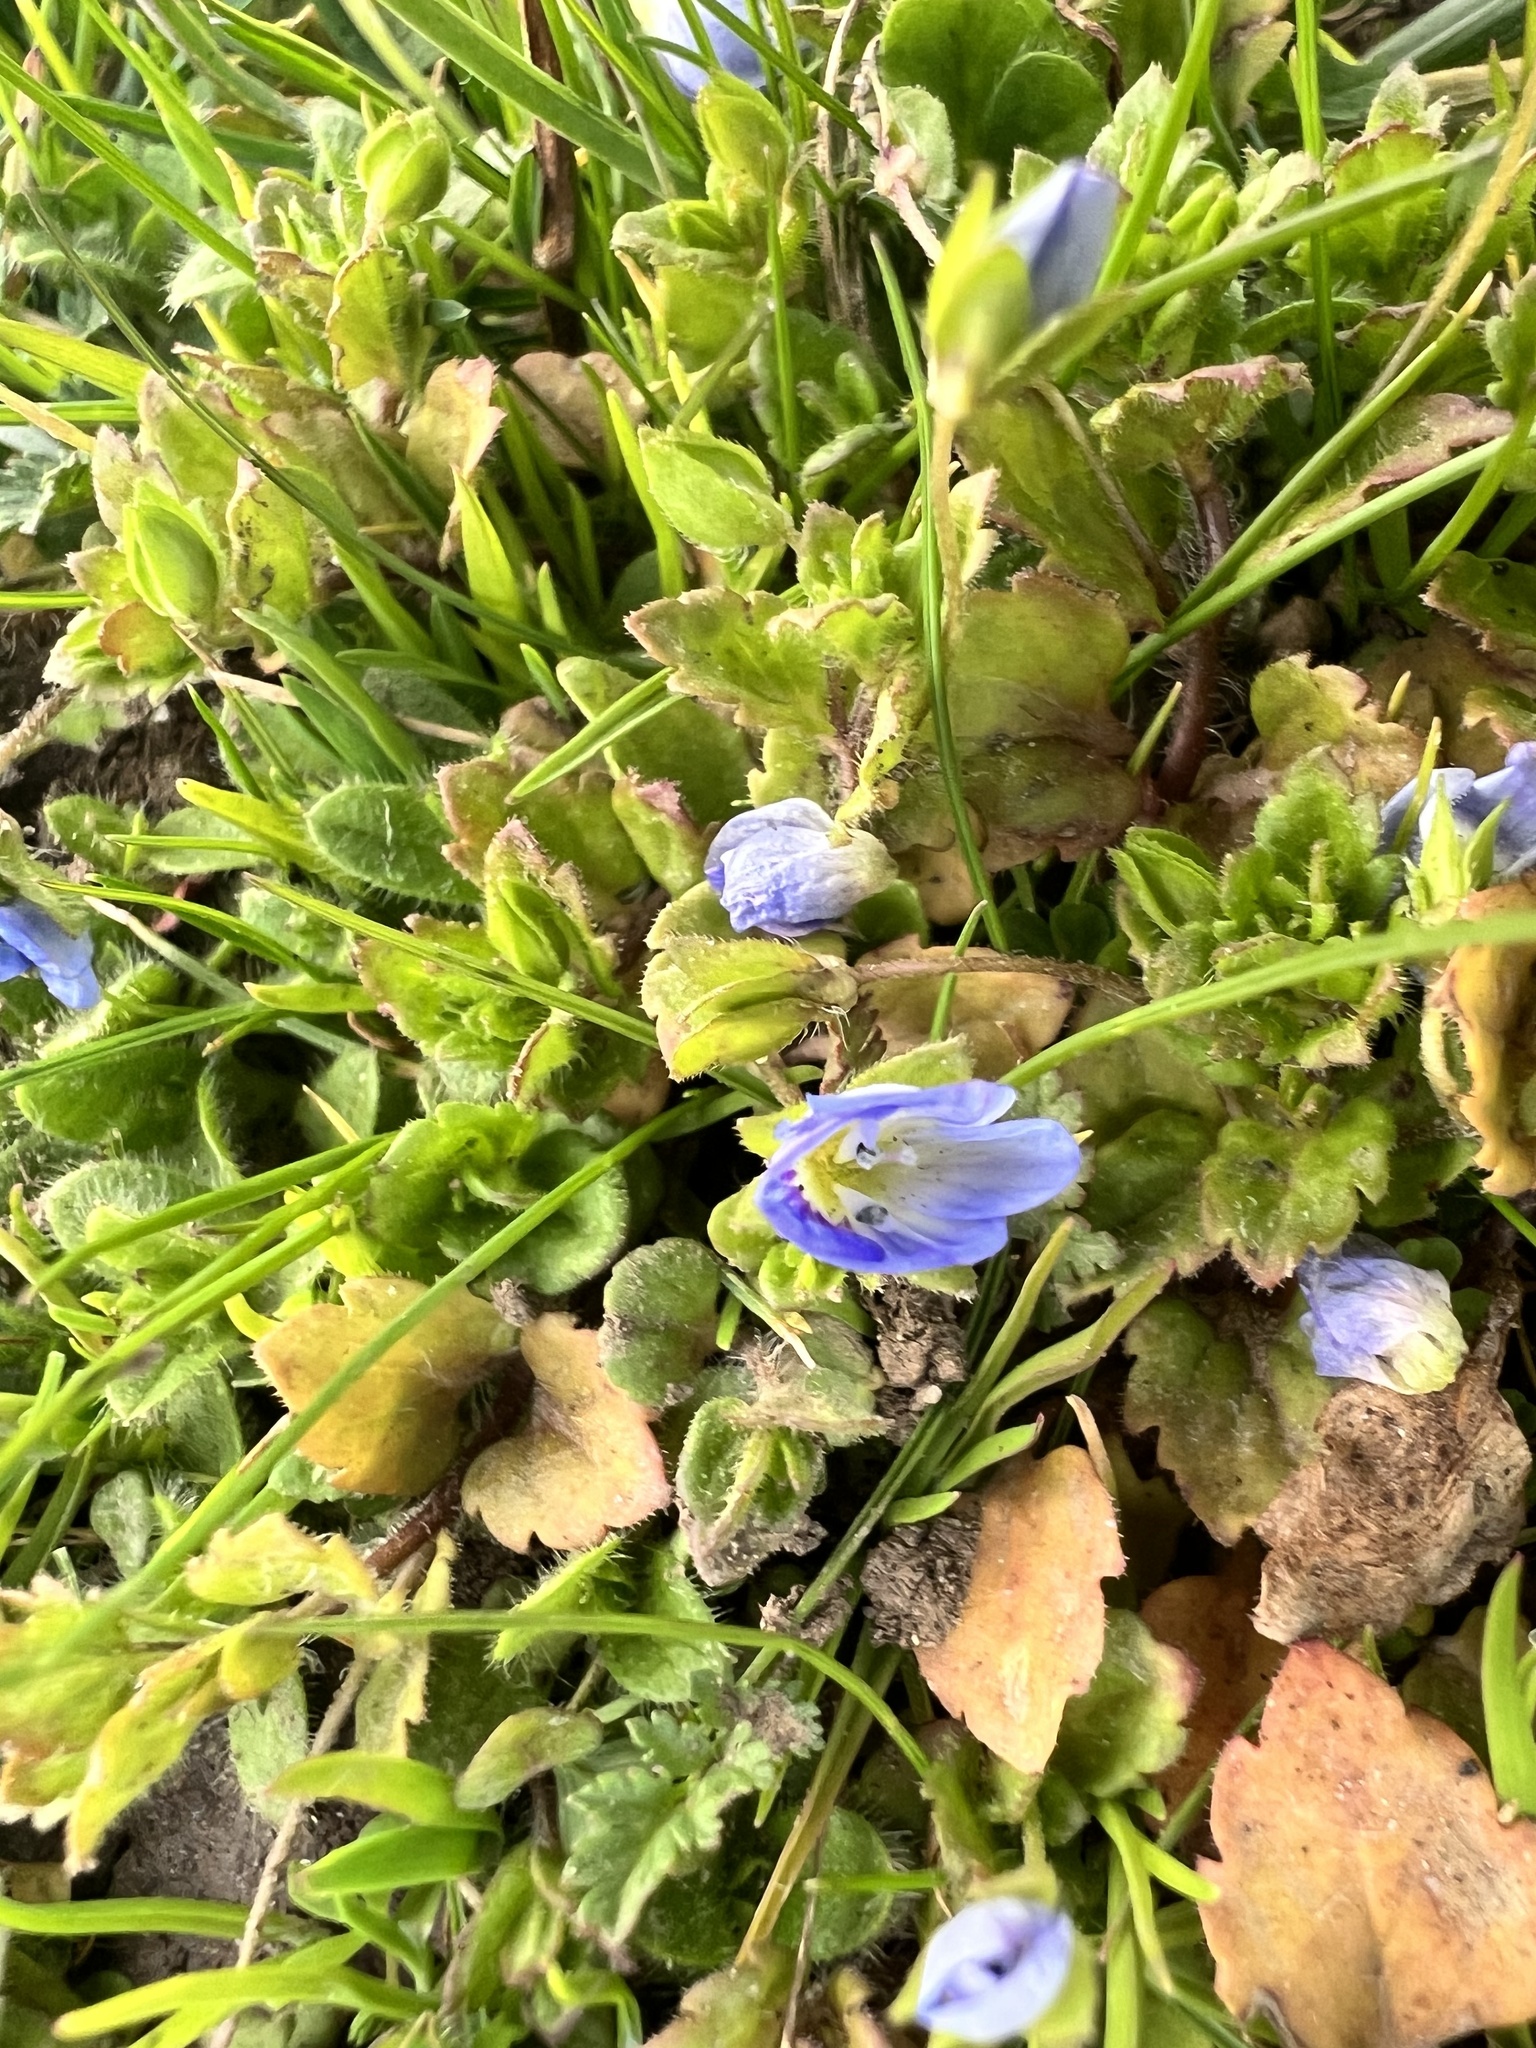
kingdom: Plantae
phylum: Tracheophyta
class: Magnoliopsida
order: Lamiales
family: Plantaginaceae
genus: Veronica
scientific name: Veronica persica
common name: Common field-speedwell
